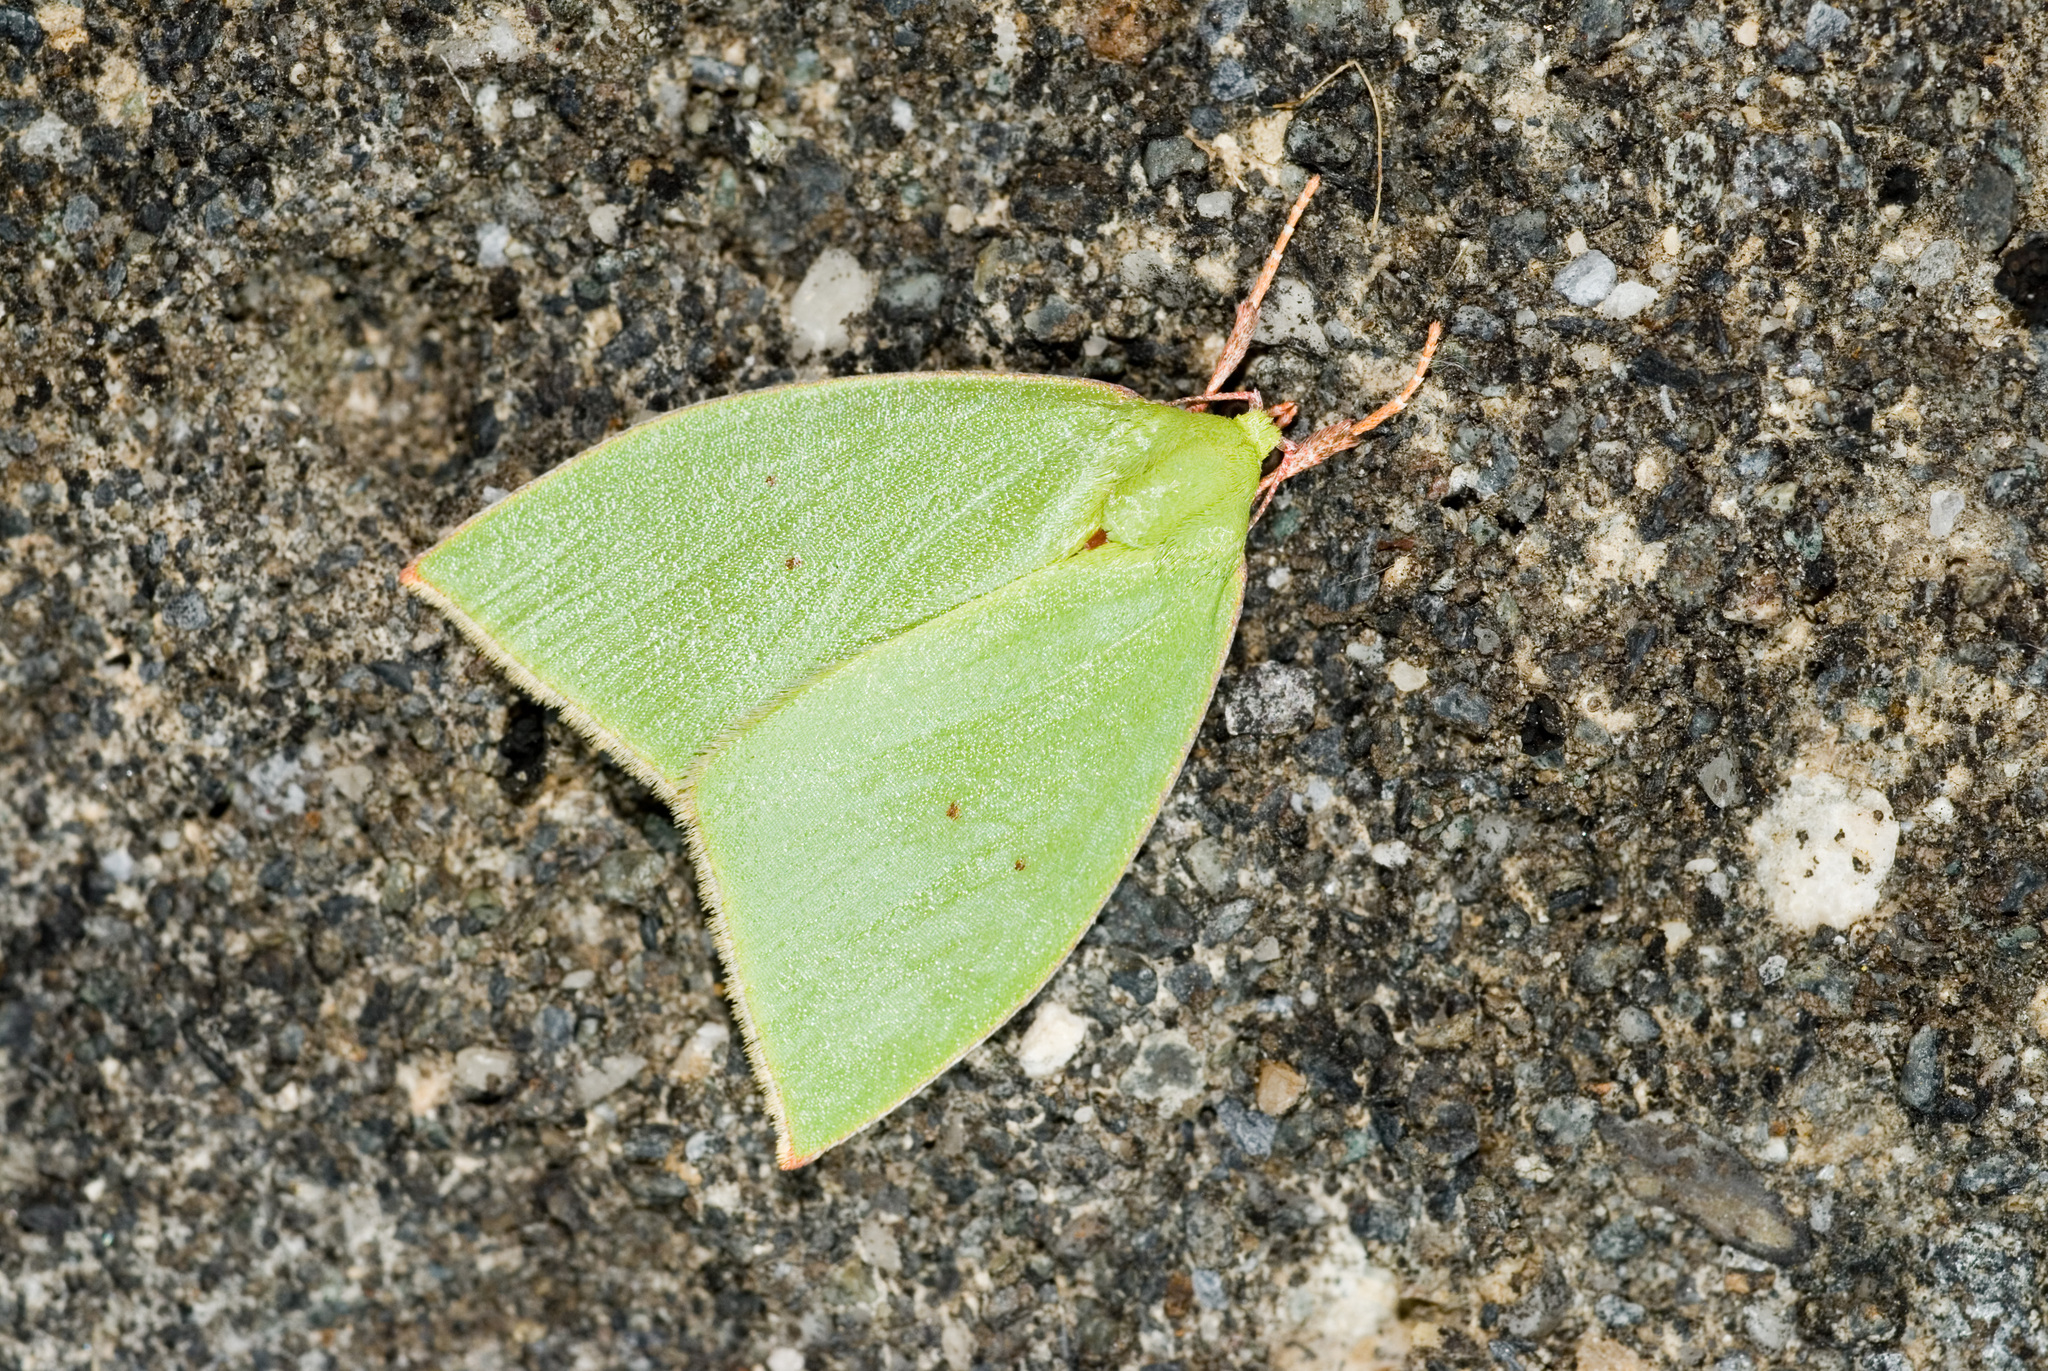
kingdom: Animalia
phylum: Arthropoda
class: Insecta
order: Lepidoptera
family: Nolidae
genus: Tyana
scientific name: Tyana falcata
